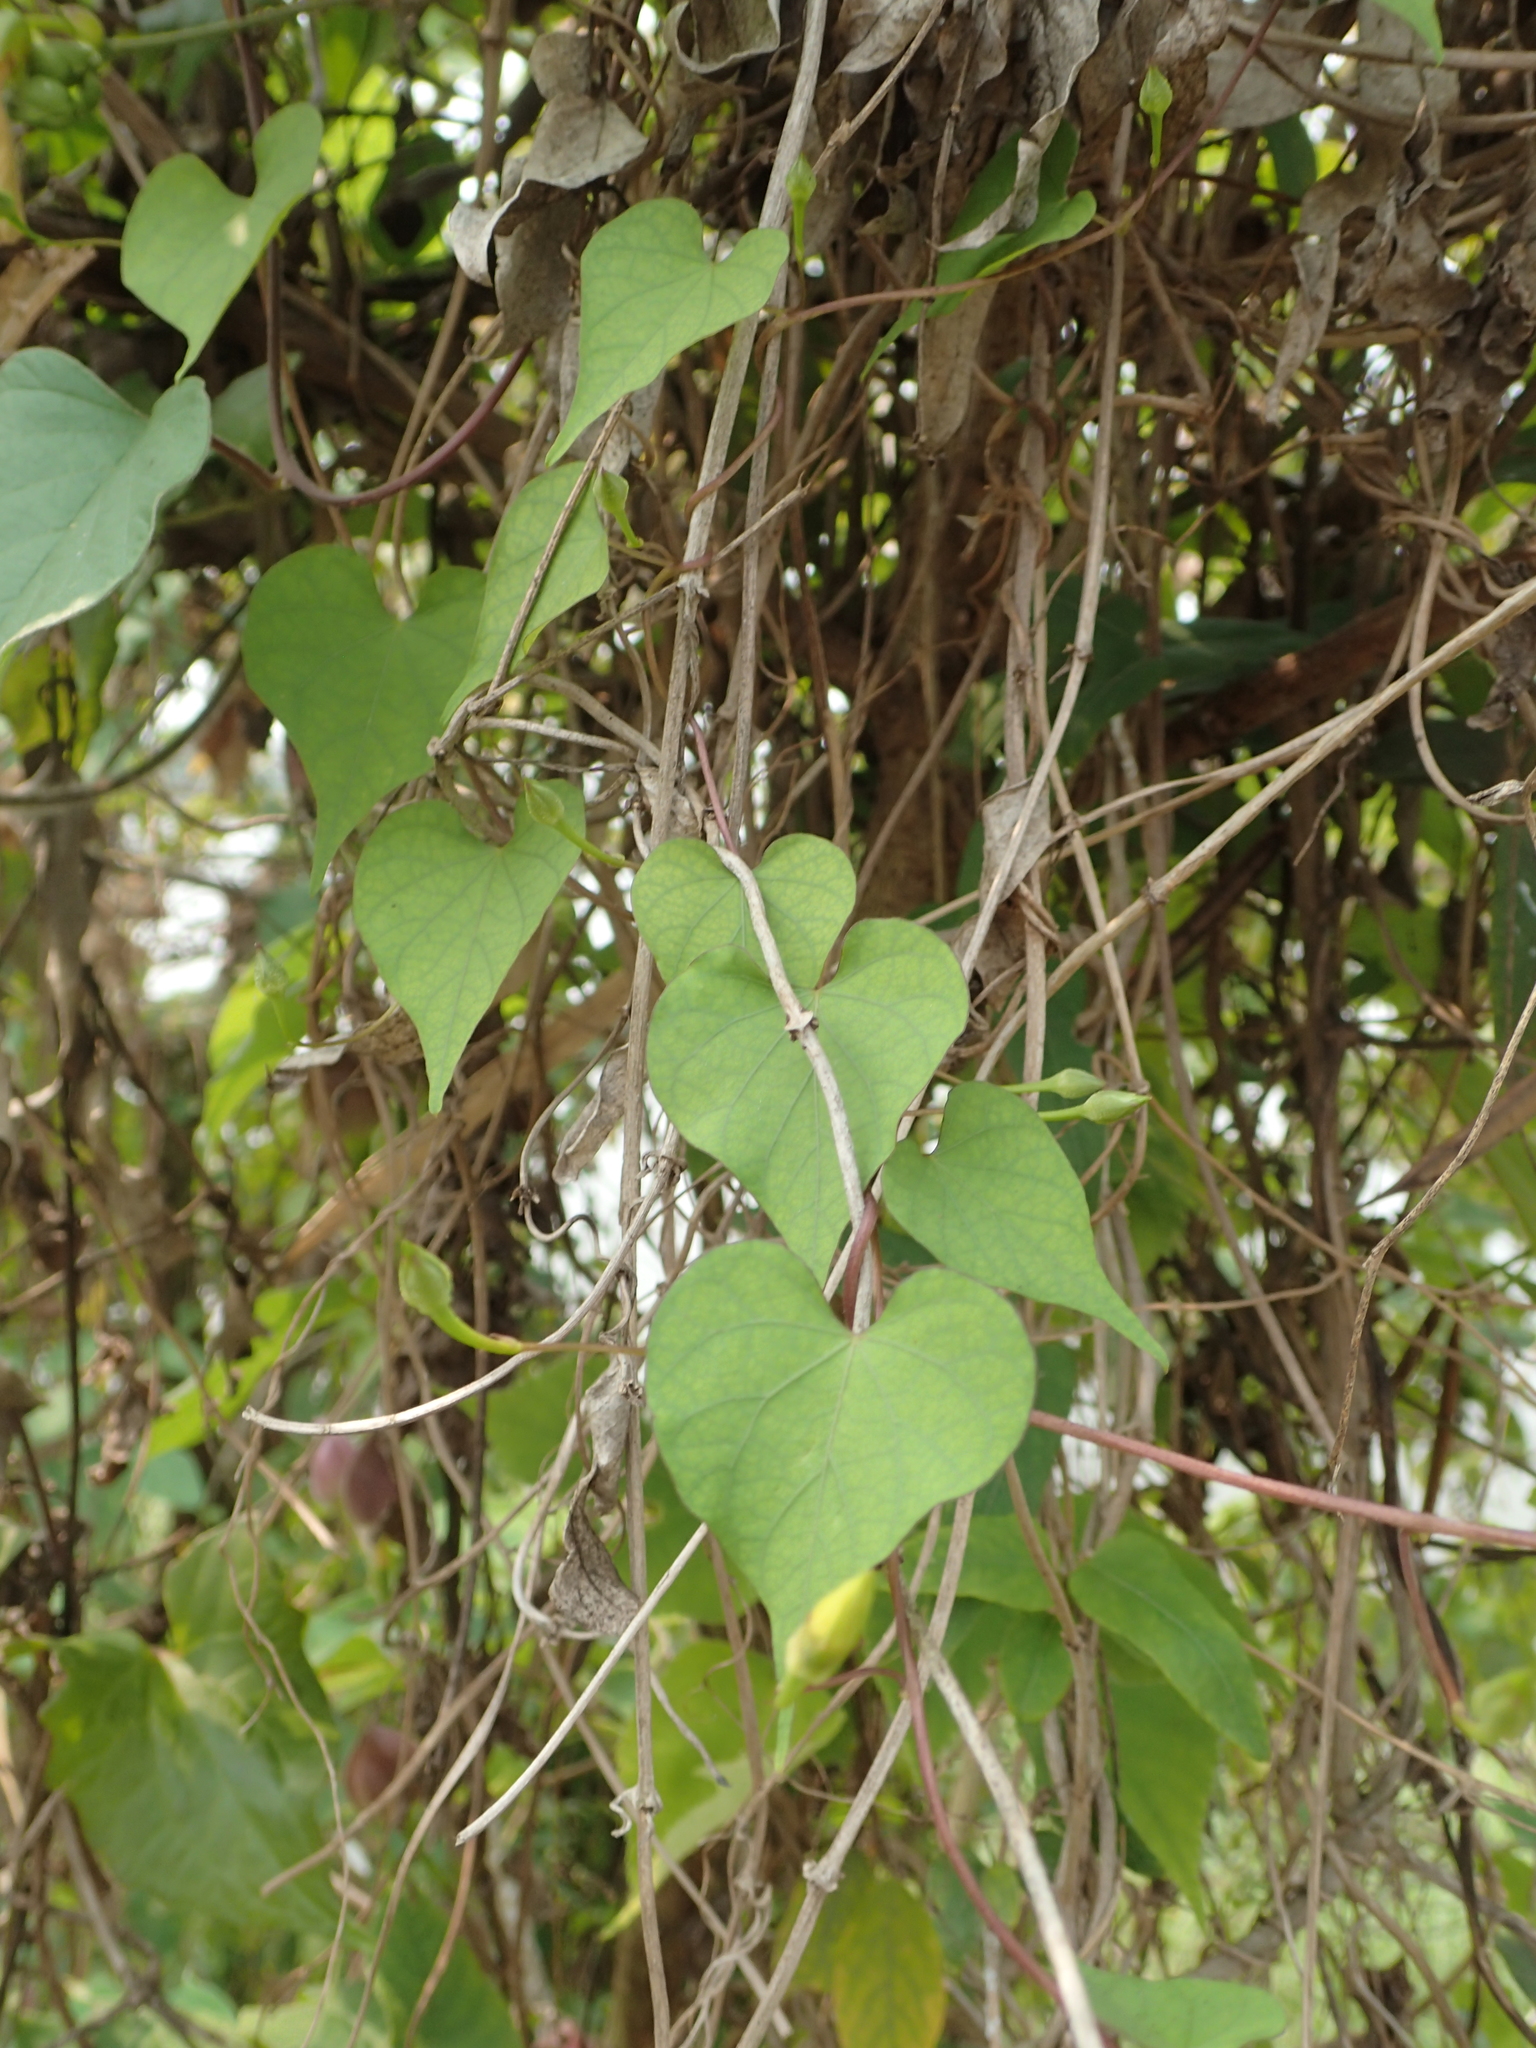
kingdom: Plantae
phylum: Tracheophyta
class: Magnoliopsida
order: Solanales
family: Convolvulaceae
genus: Ipomoea
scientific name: Ipomoea obscura
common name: Obscure morning-glory
